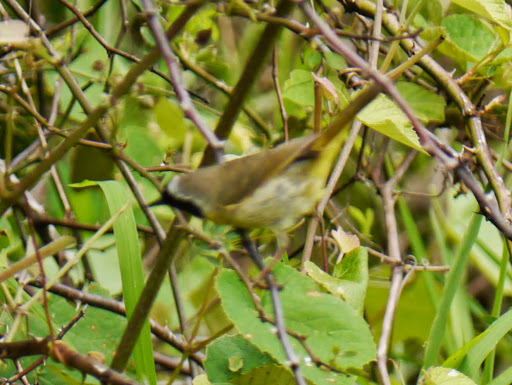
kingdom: Animalia
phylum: Chordata
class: Aves
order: Passeriformes
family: Parulidae
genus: Geothlypis
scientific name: Geothlypis trichas
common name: Common yellowthroat
